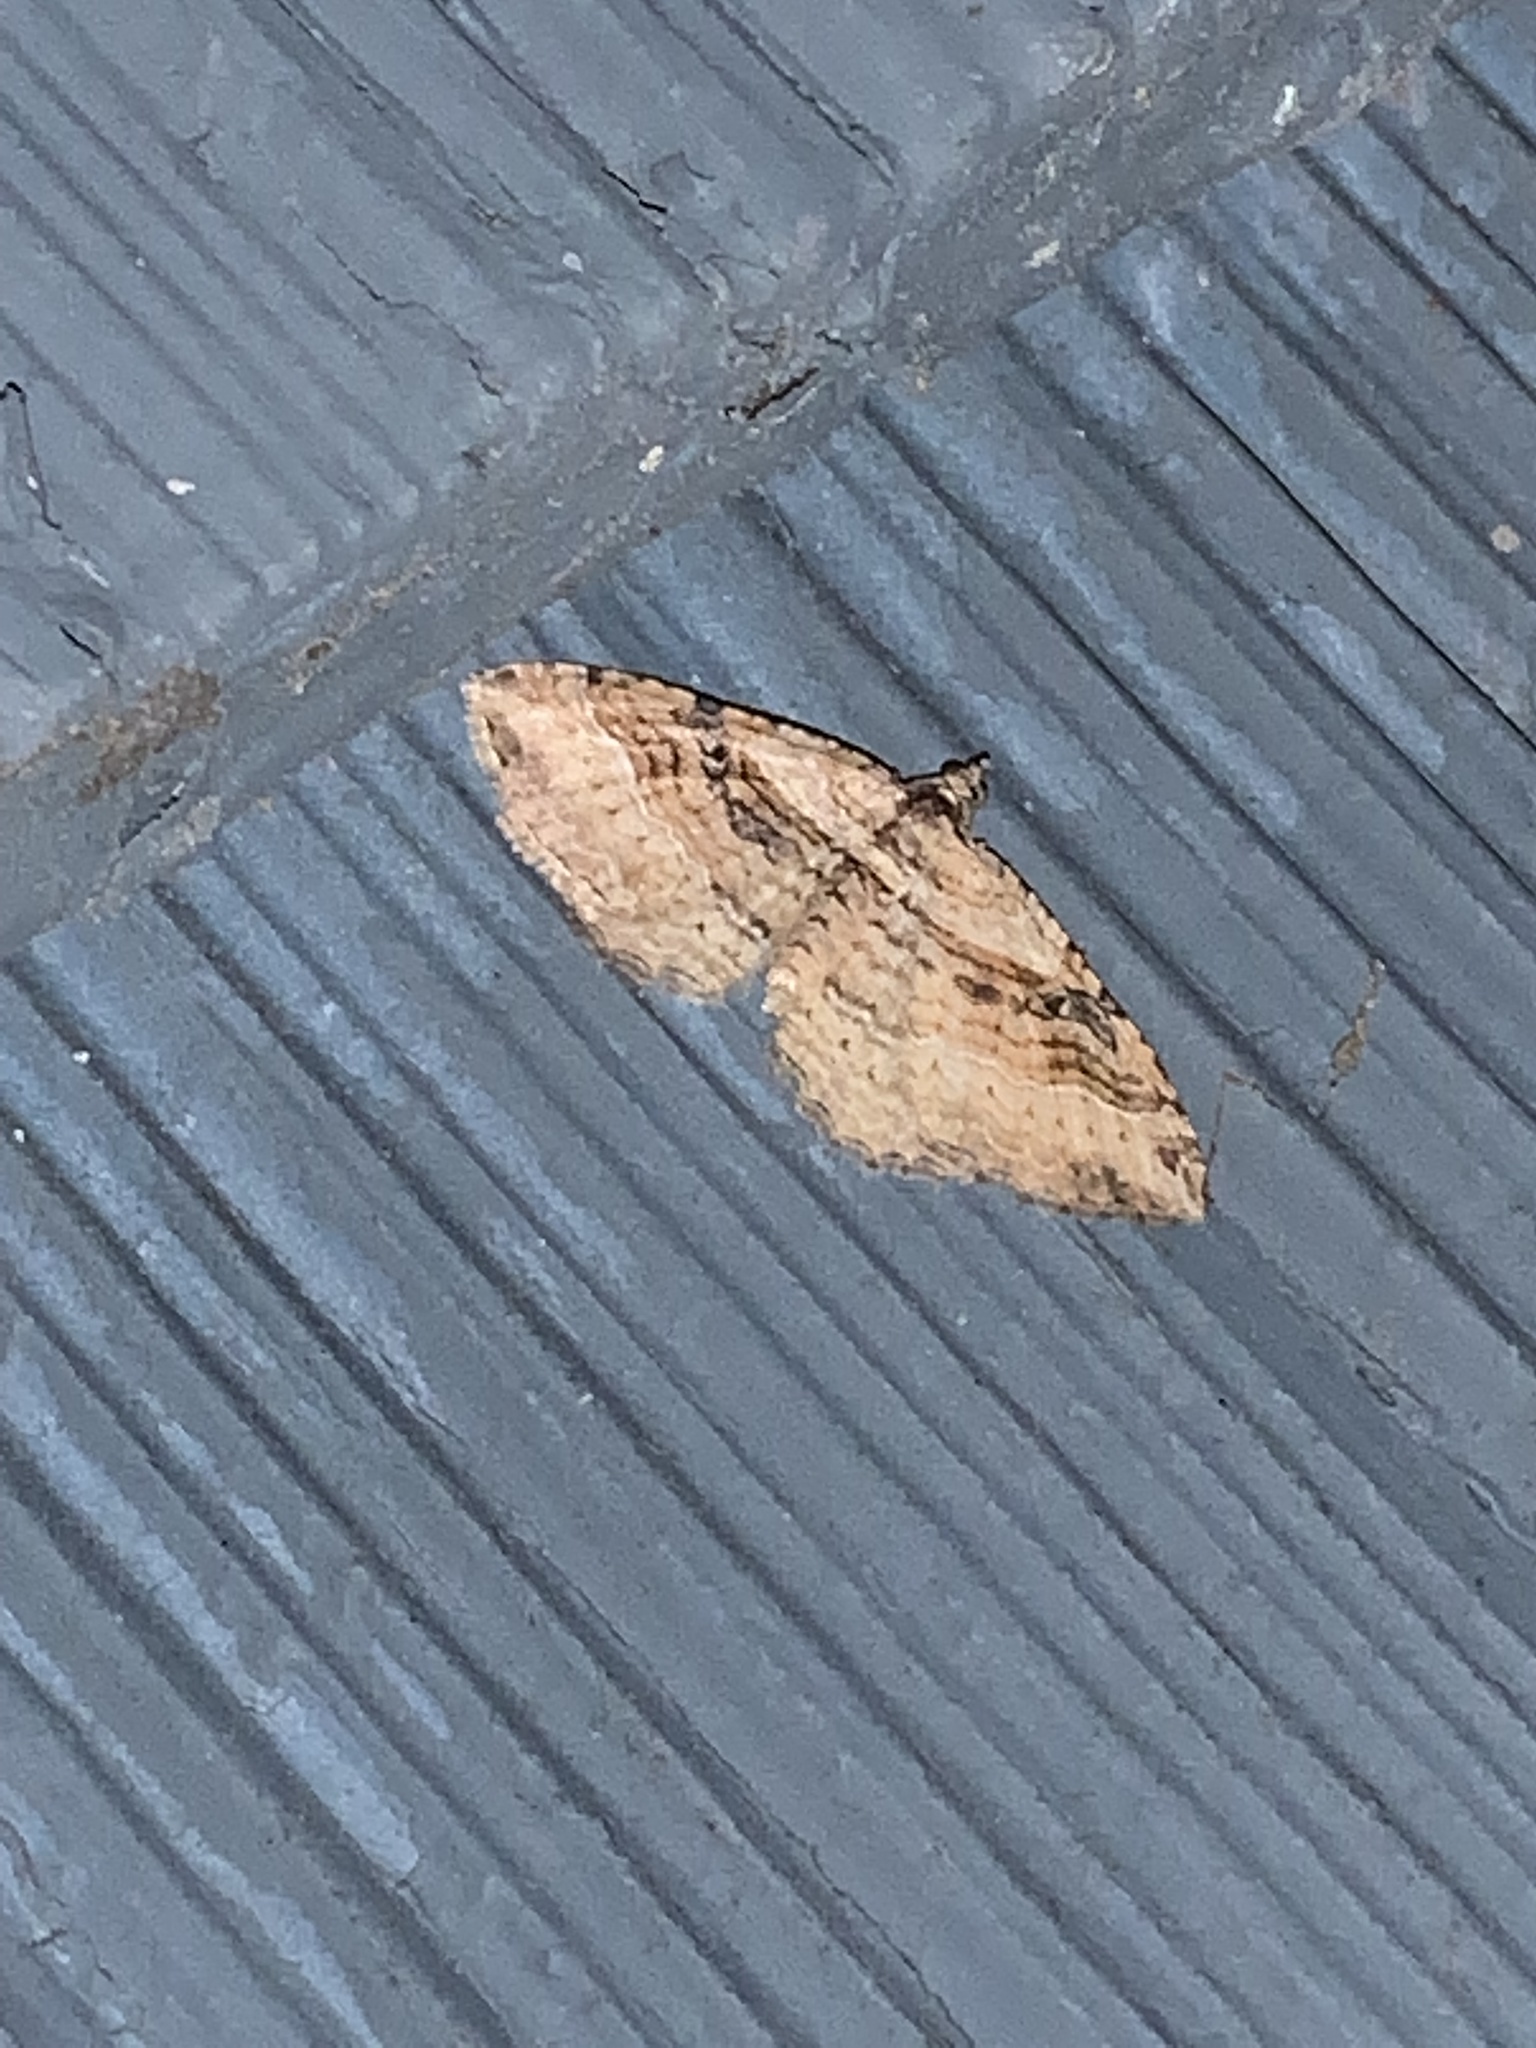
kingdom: Animalia
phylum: Arthropoda
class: Insecta
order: Lepidoptera
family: Geometridae
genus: Costaconvexa
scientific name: Costaconvexa centrostrigaria
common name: Bent-line carpet
